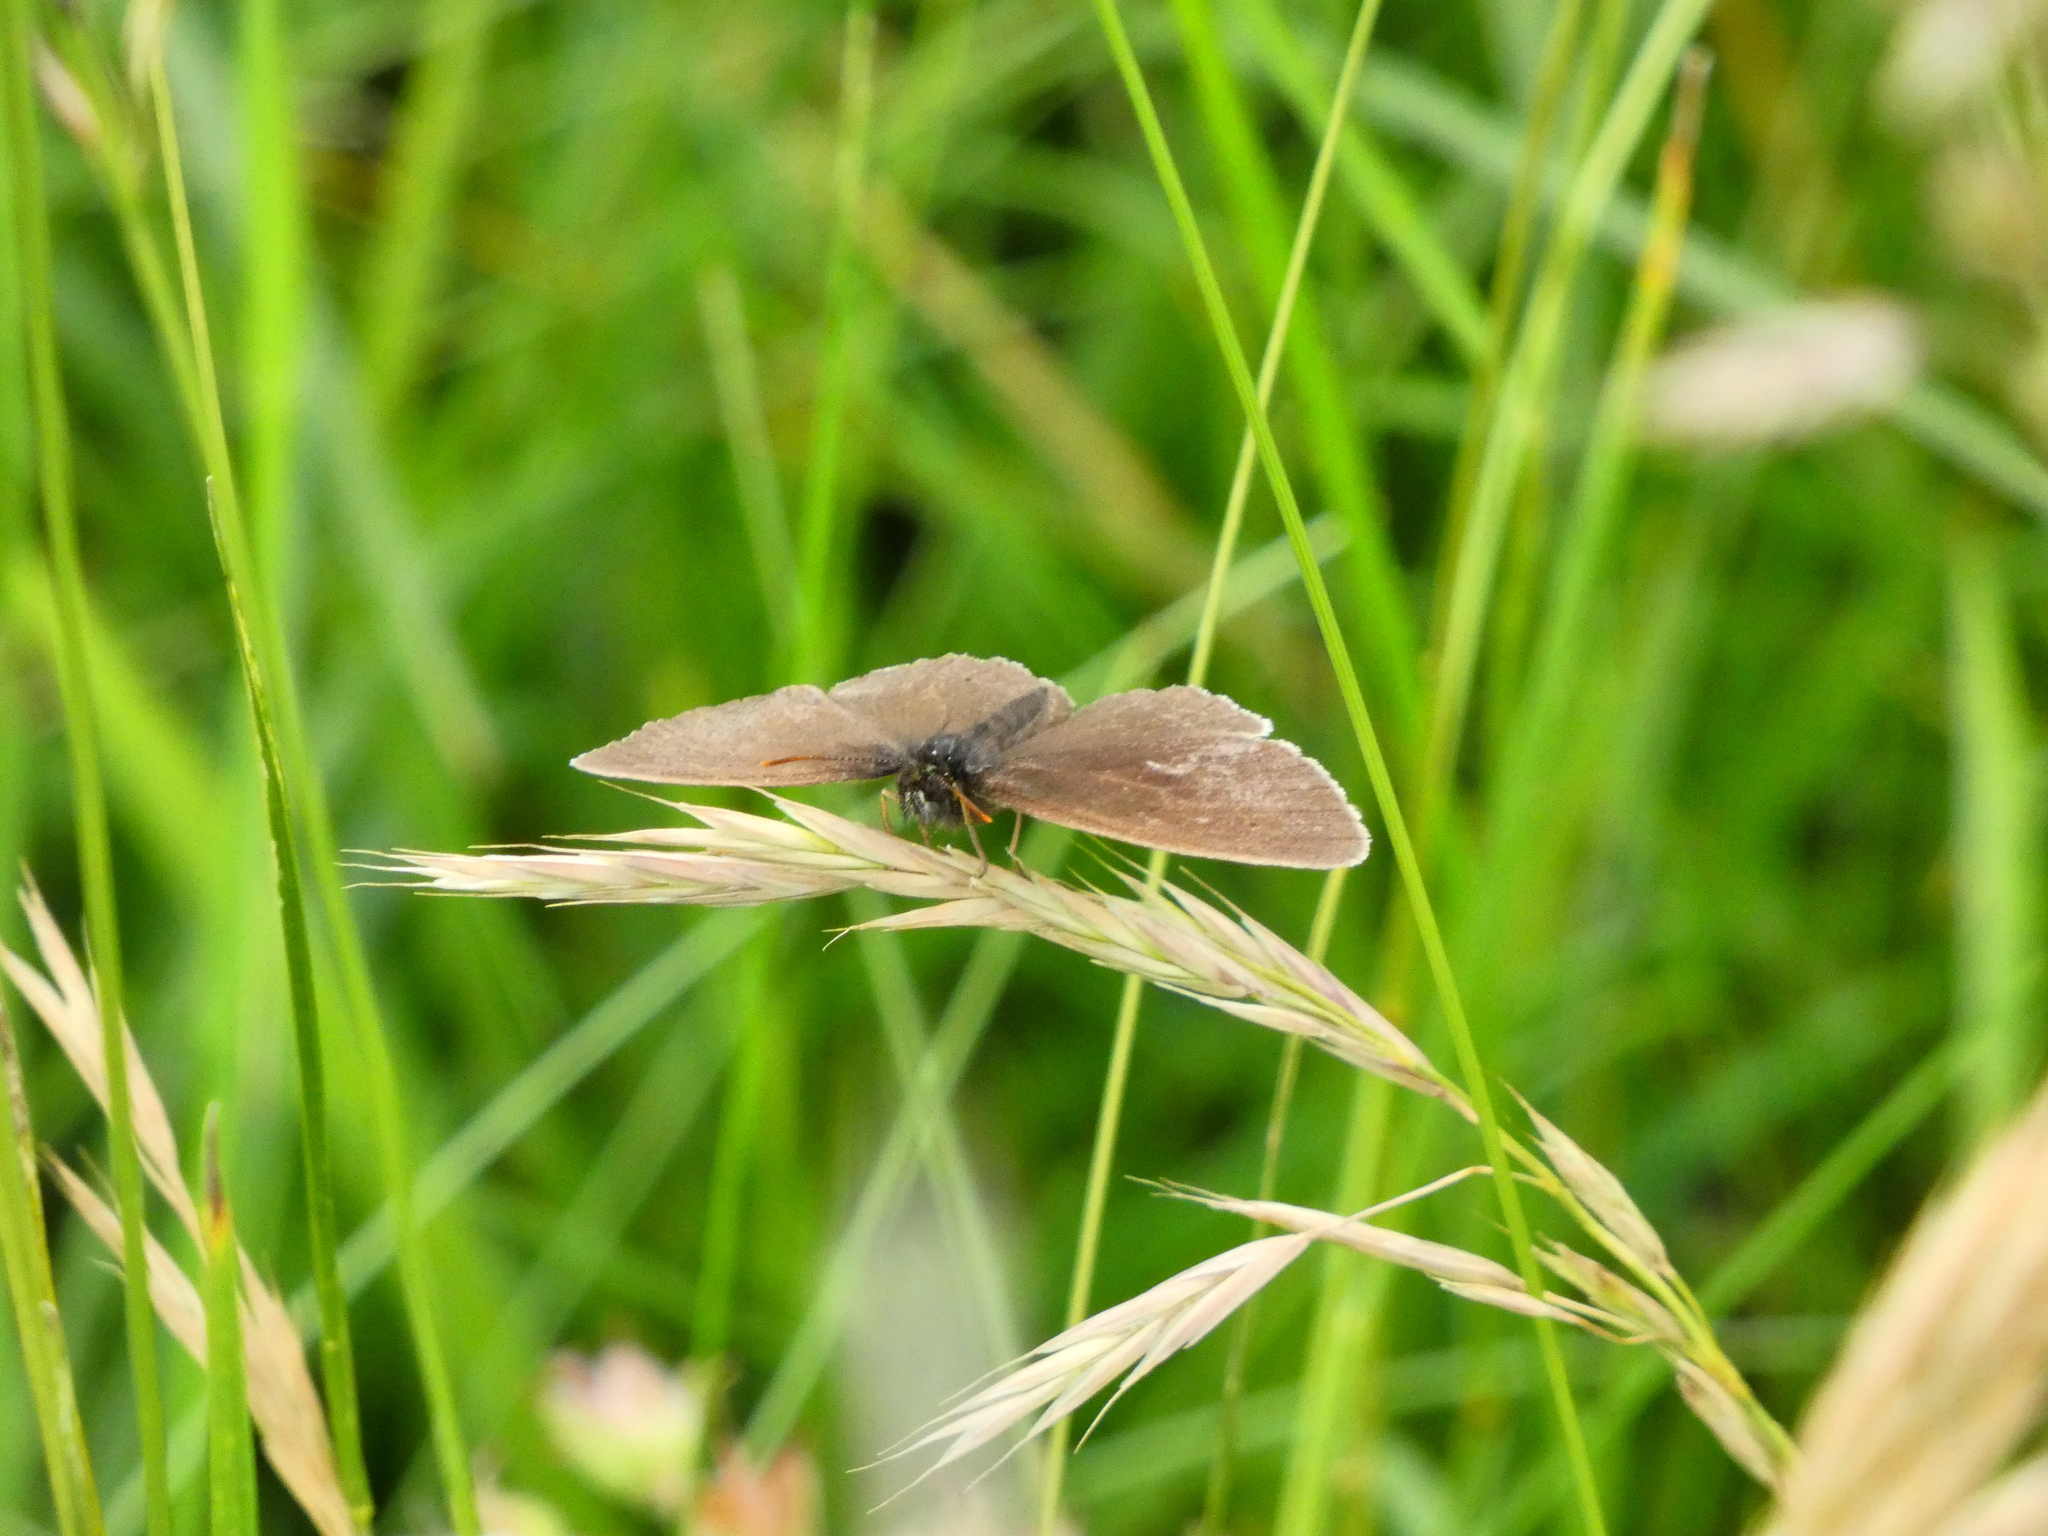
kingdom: Animalia
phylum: Arthropoda
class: Insecta
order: Lepidoptera
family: Nymphalidae
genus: Aphantopus
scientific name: Aphantopus hyperantus
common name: Ringlet
